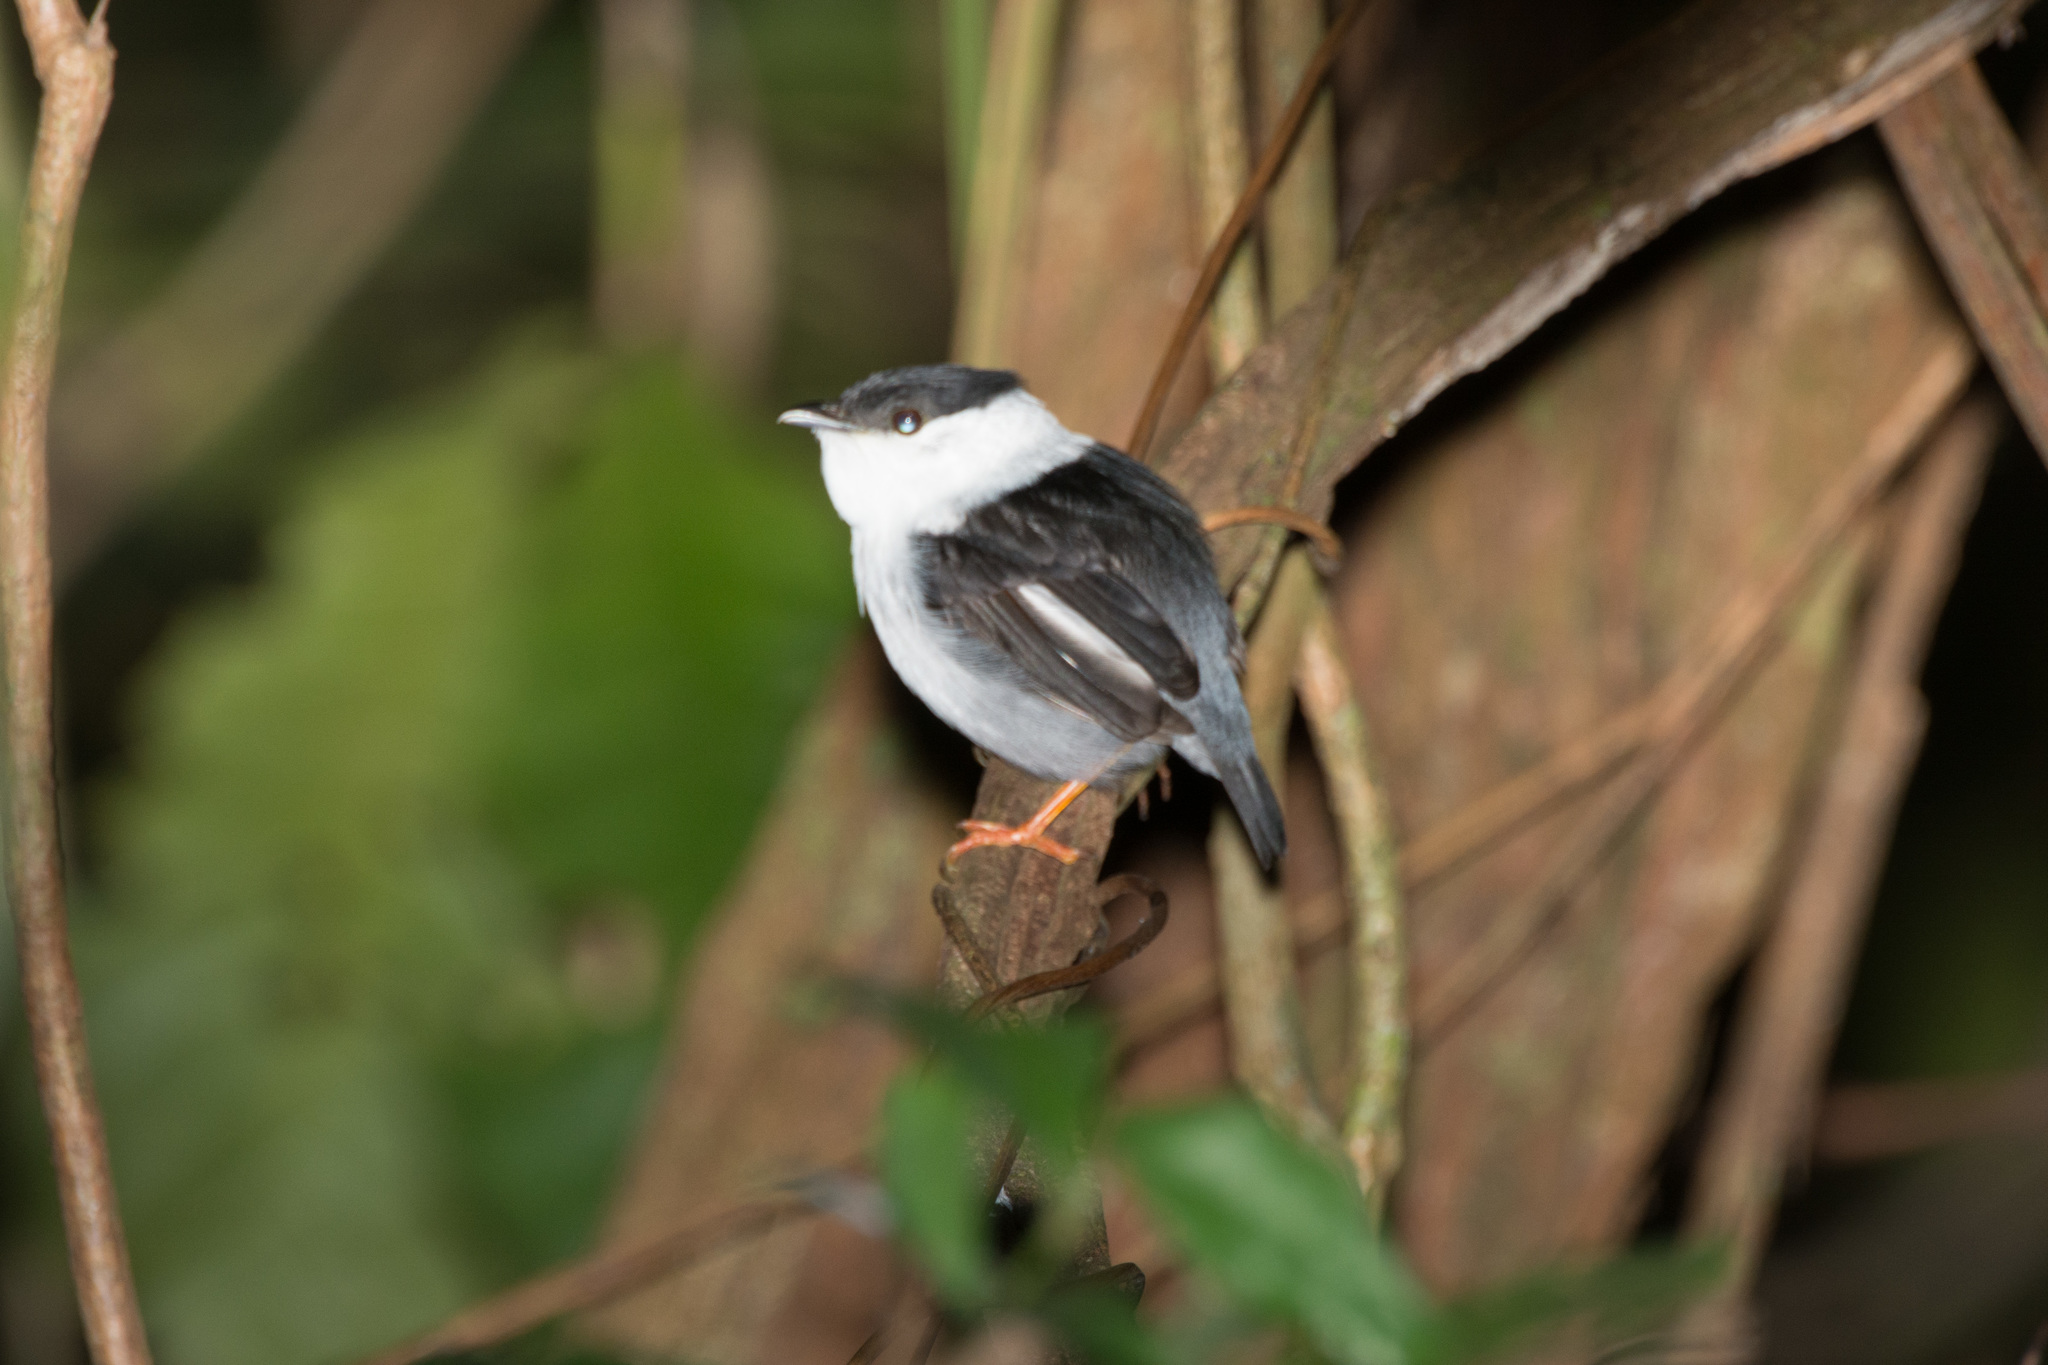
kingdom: Animalia
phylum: Chordata
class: Aves
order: Passeriformes
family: Pipridae
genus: Manacus
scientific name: Manacus manacus
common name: White-bearded manakin
